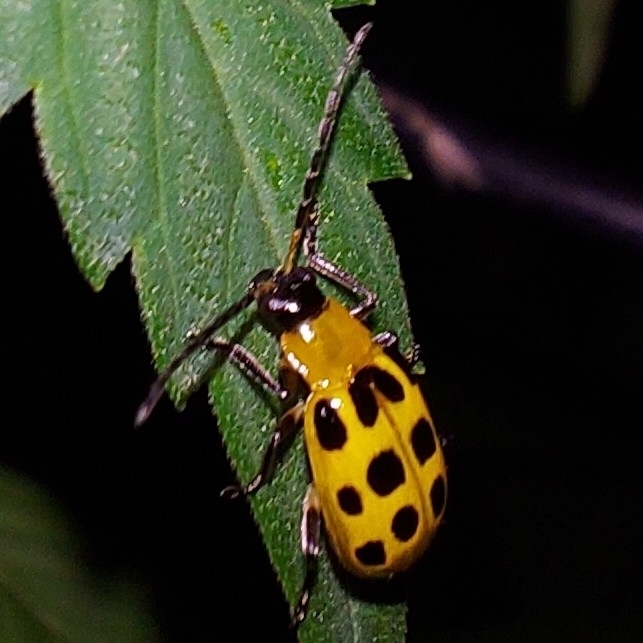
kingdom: Animalia
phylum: Arthropoda
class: Insecta
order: Coleoptera
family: Chrysomelidae
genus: Diabrotica
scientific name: Diabrotica undecimpunctata
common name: Spotted cucumber beetle
